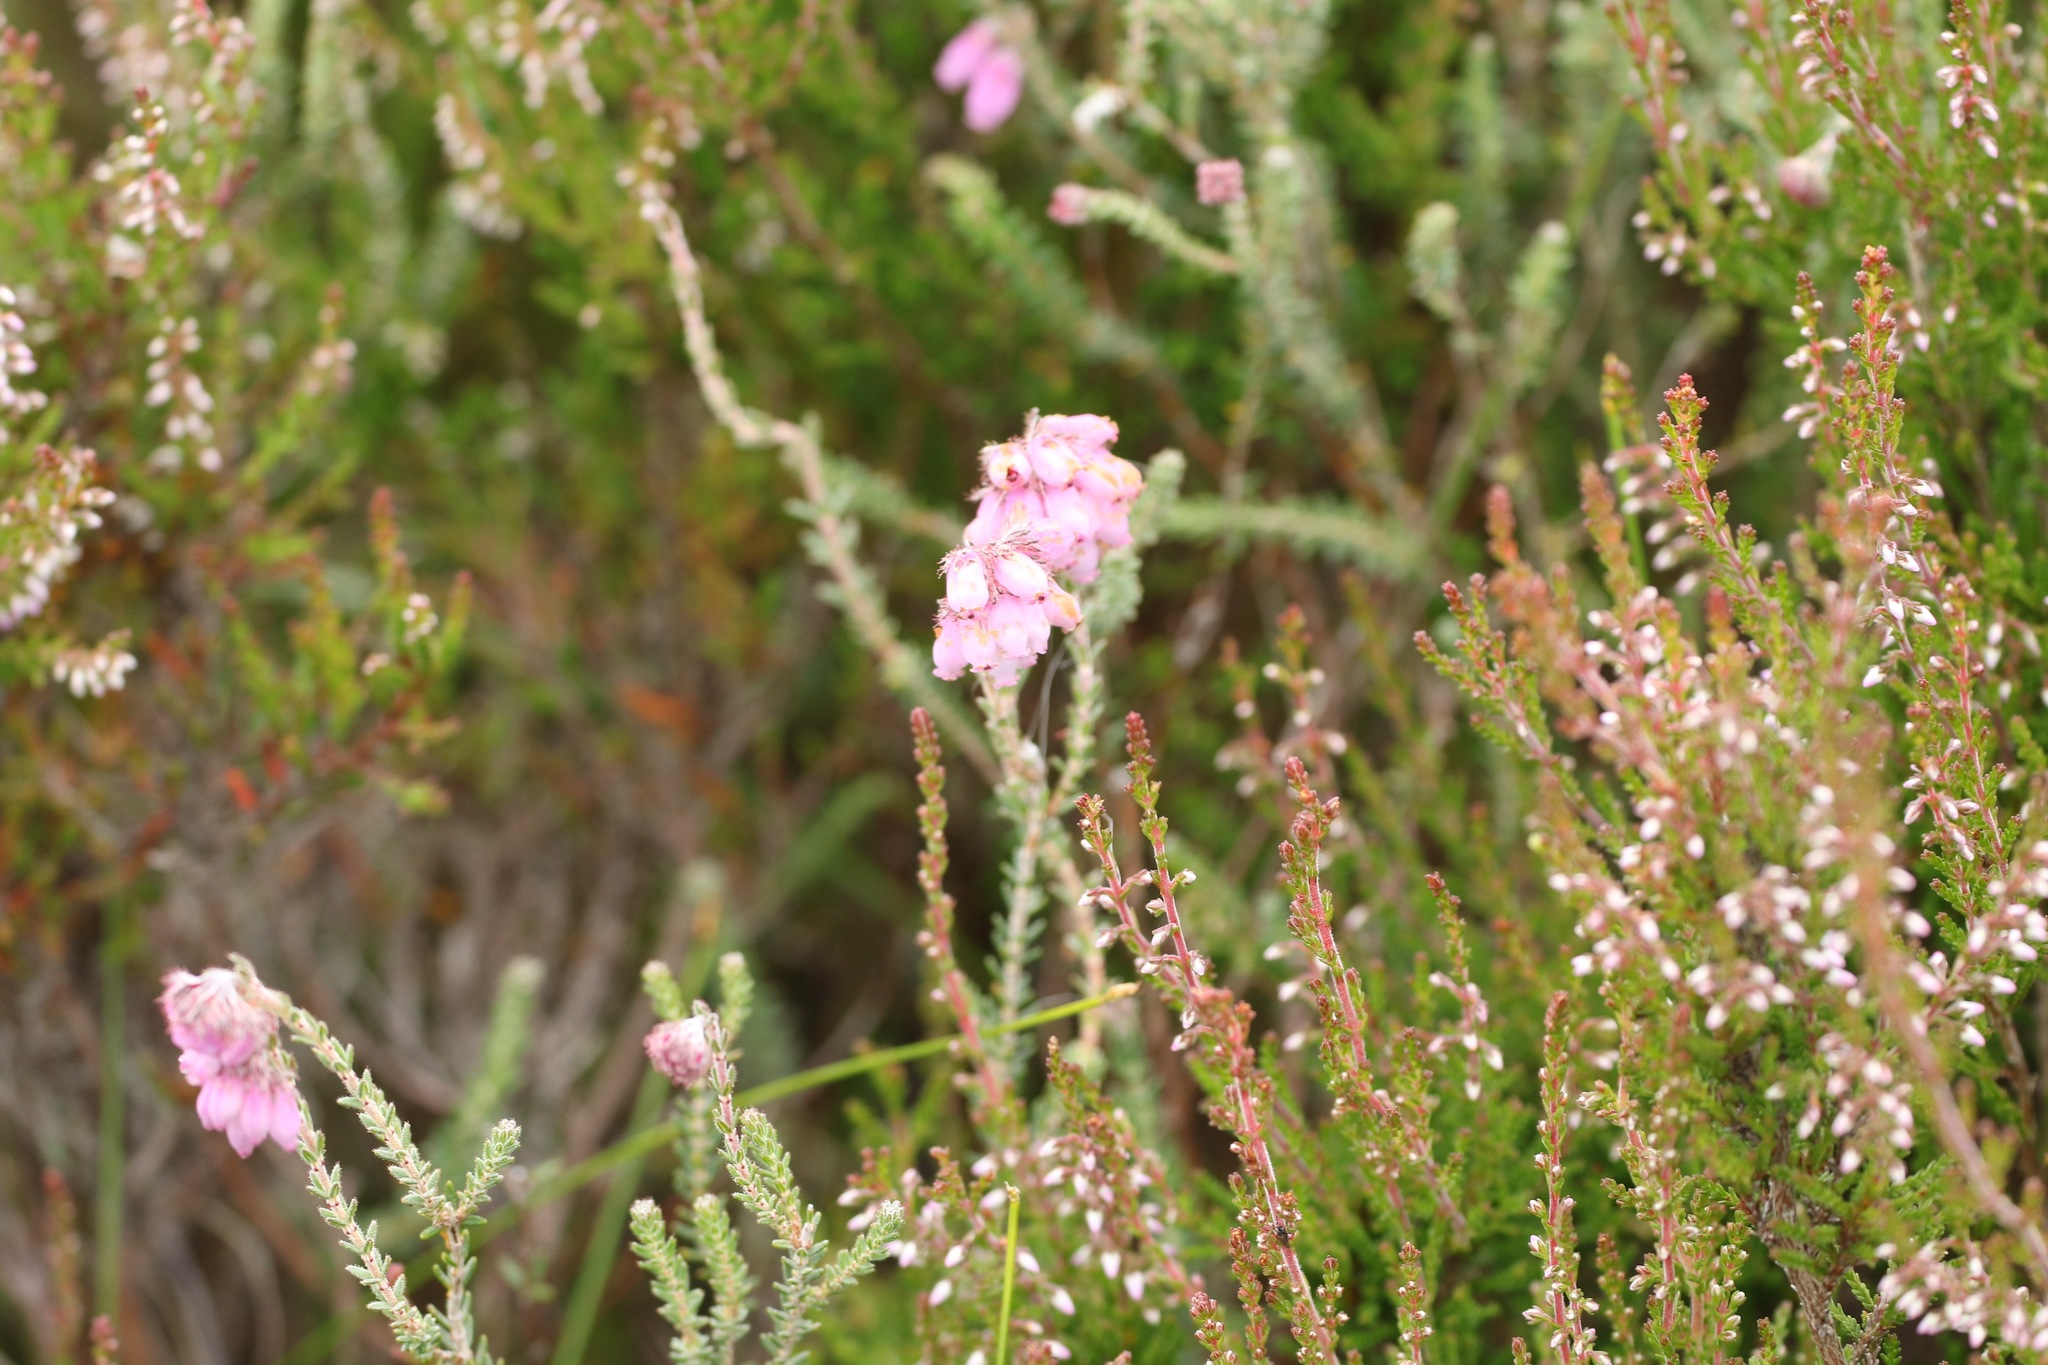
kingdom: Plantae
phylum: Tracheophyta
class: Magnoliopsida
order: Ericales
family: Ericaceae
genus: Erica
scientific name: Erica tetralix
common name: Cross-leaved heath
